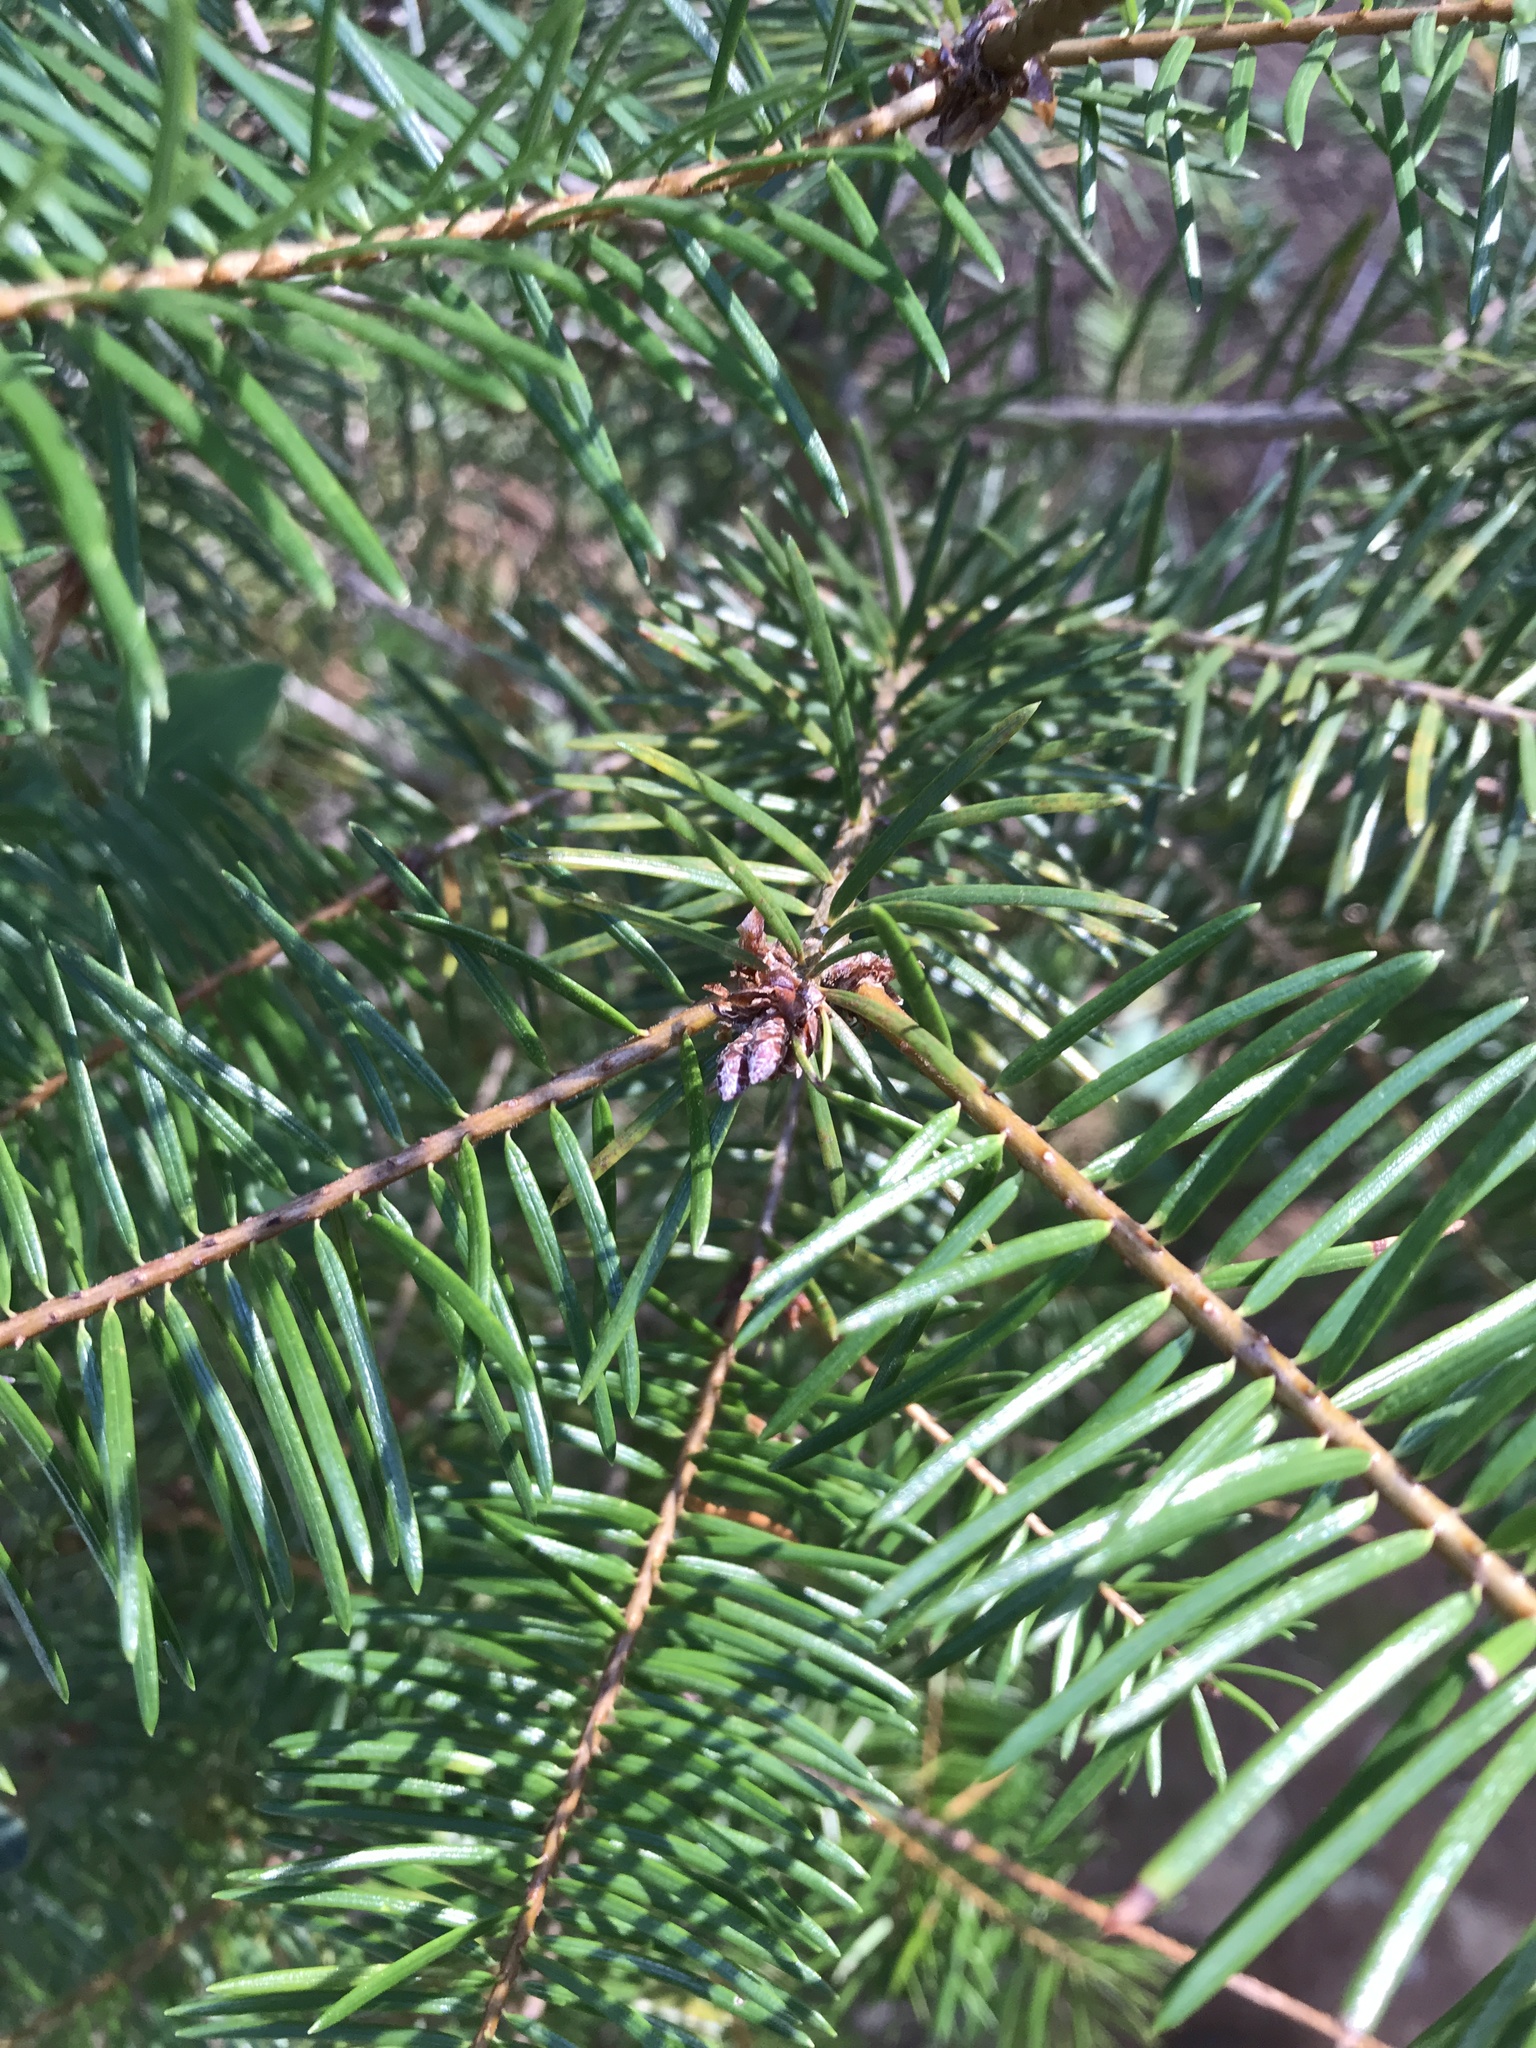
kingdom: Plantae
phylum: Tracheophyta
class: Pinopsida
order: Pinales
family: Pinaceae
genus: Pseudotsuga
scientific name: Pseudotsuga menziesii
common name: Douglas fir
